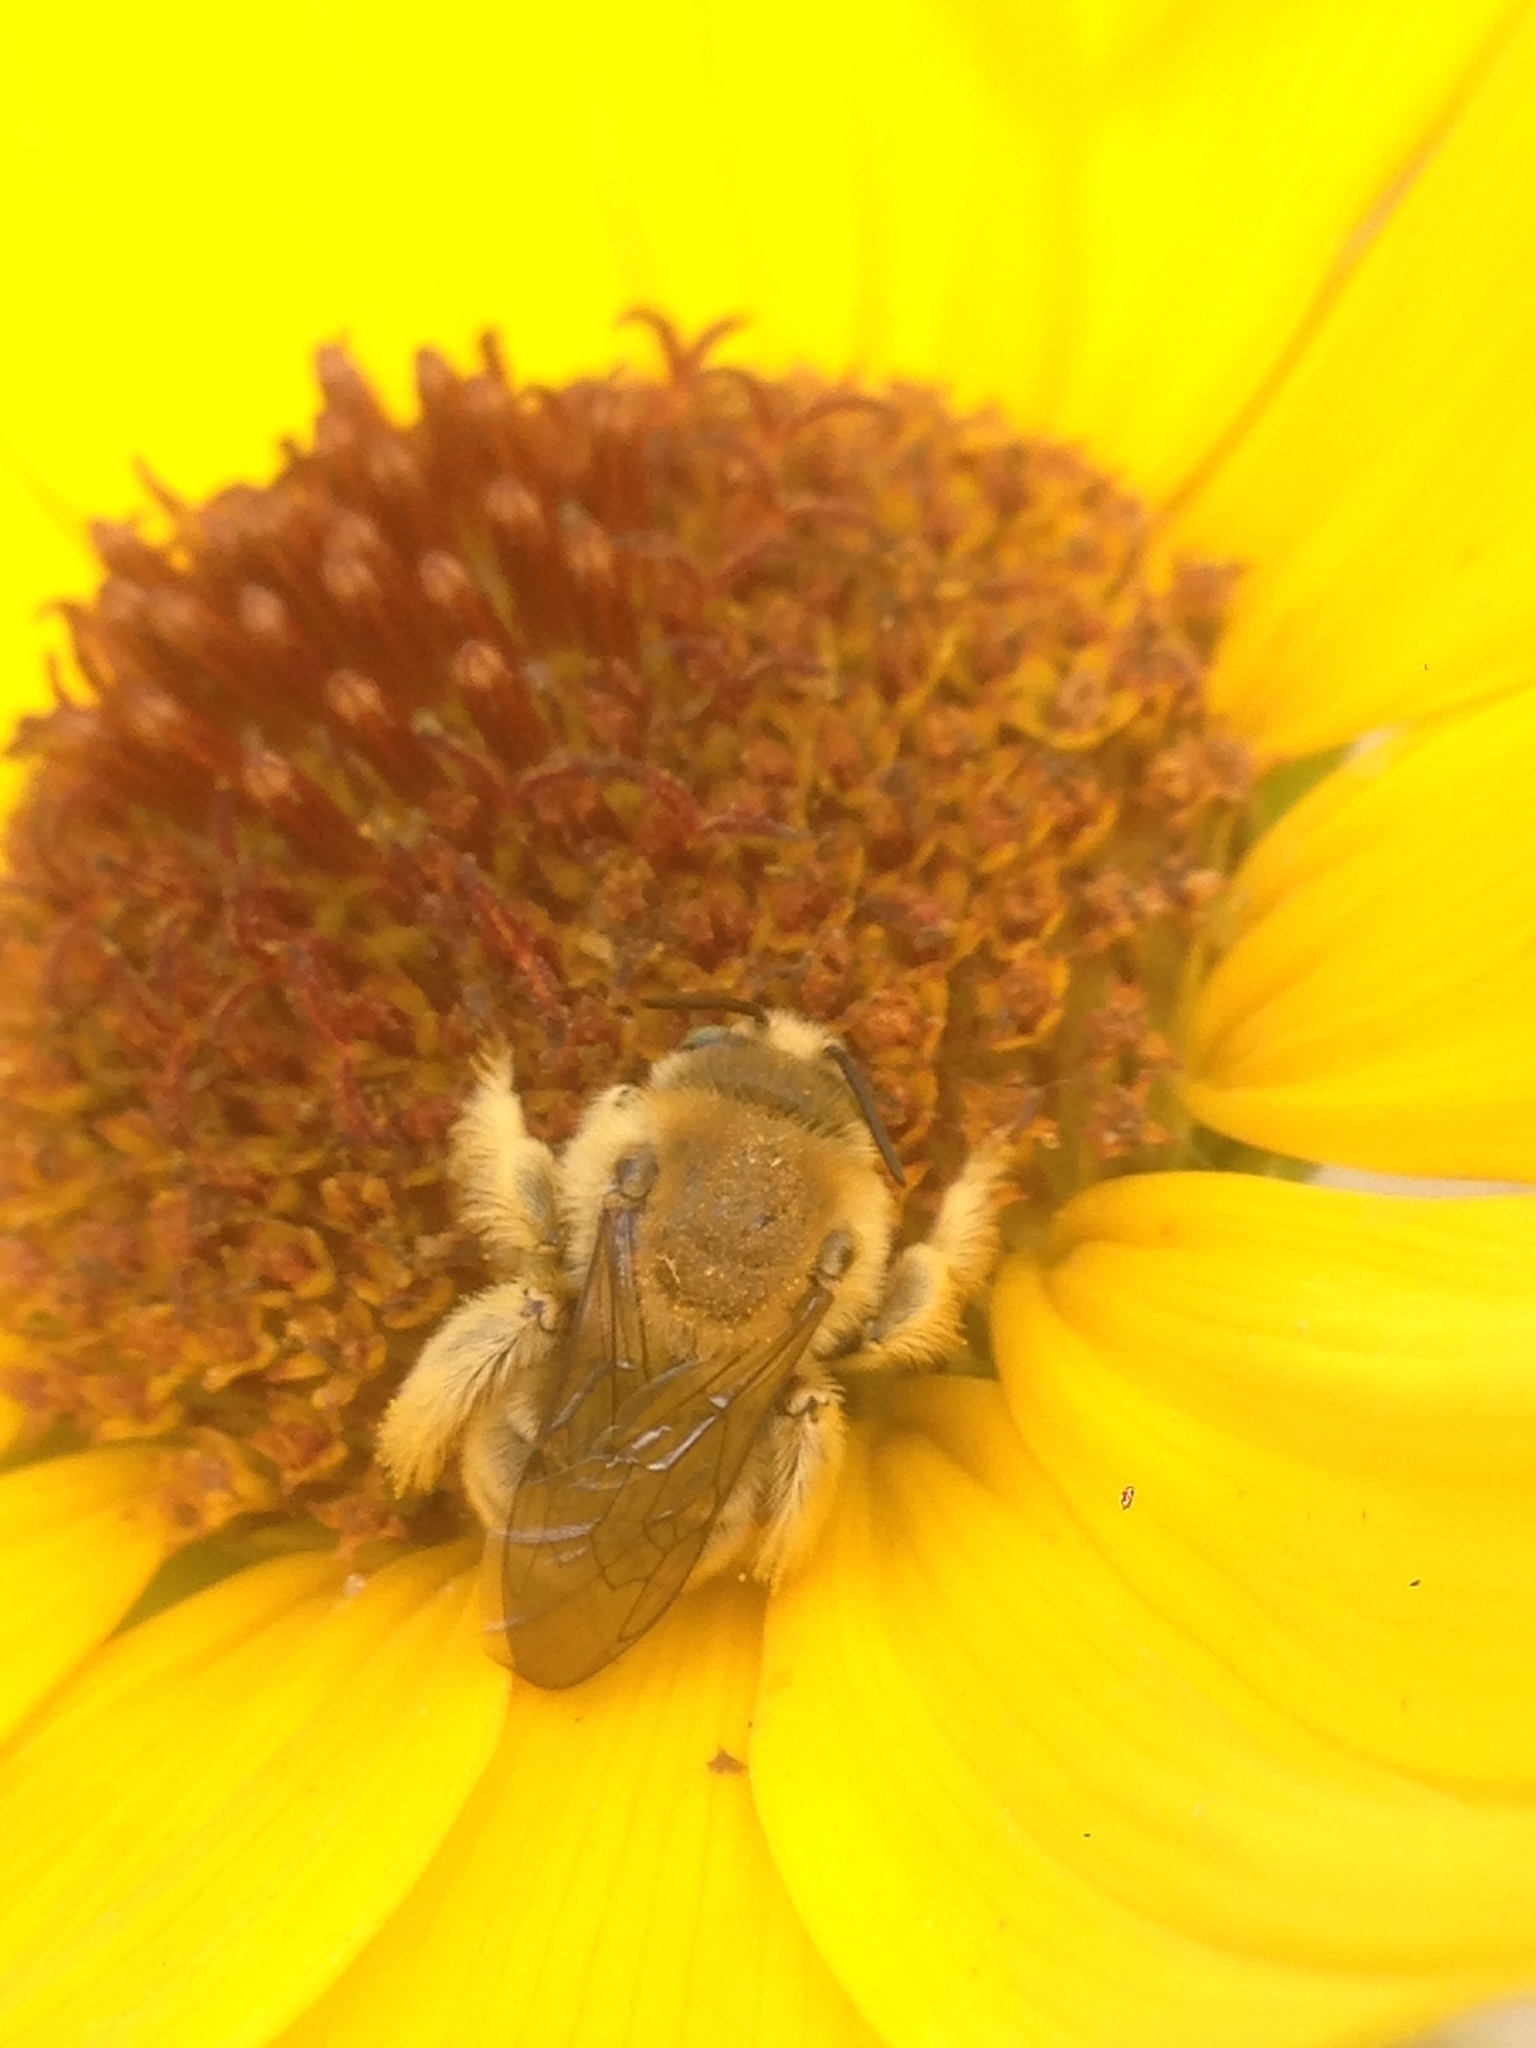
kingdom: Animalia
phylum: Arthropoda
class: Insecta
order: Hymenoptera
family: Apidae
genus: Diadasia
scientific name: Diadasia enavata
